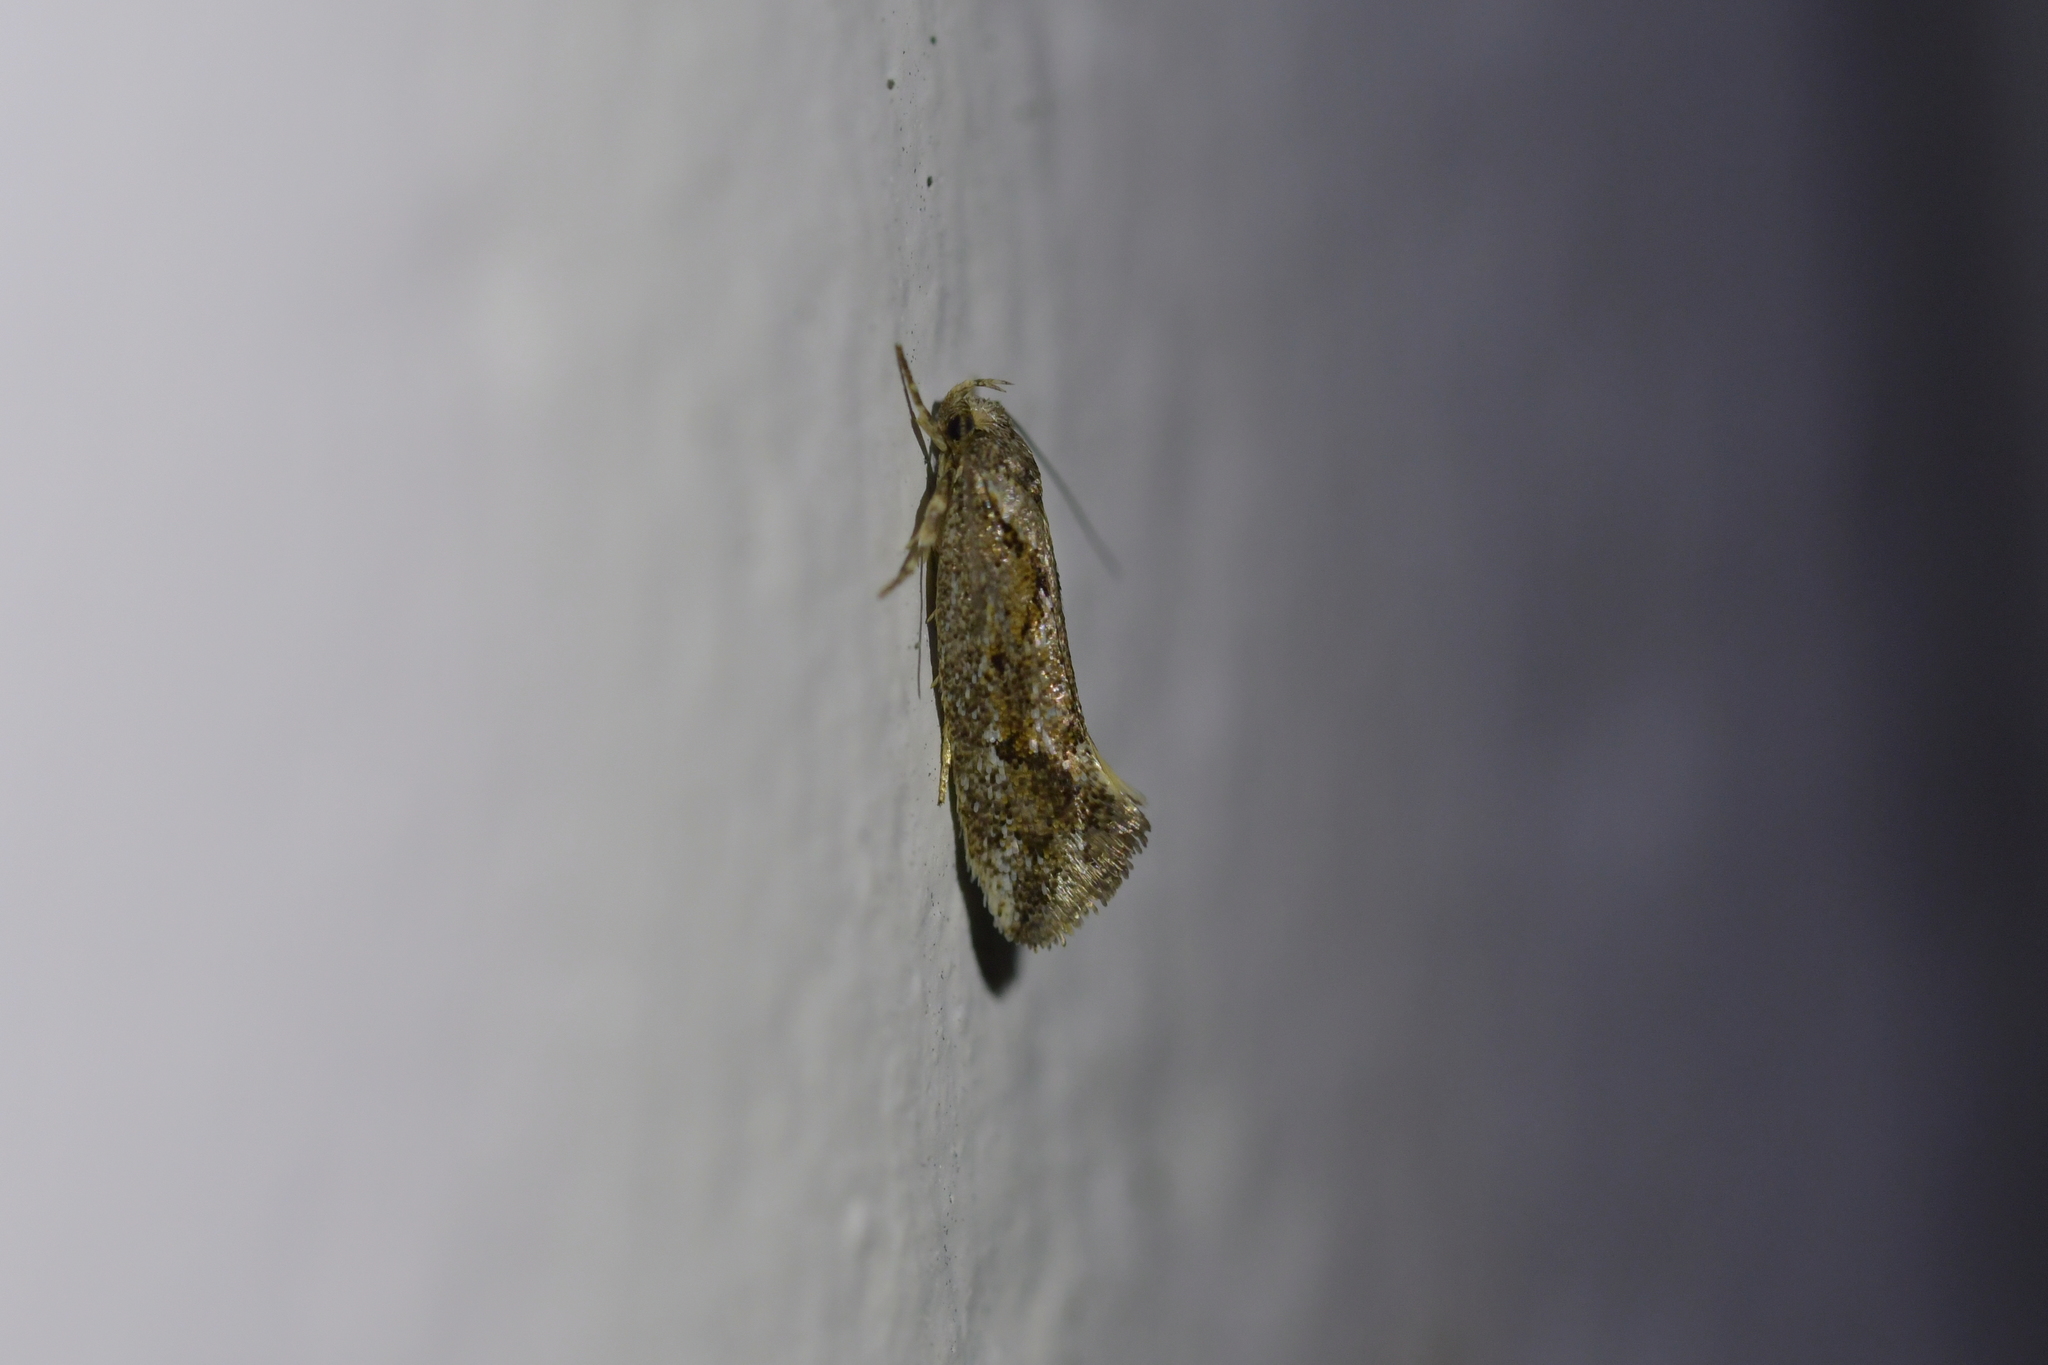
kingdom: Animalia
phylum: Arthropoda
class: Insecta
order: Lepidoptera
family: Oecophoridae
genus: Tingena
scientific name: Tingena hemimochla
